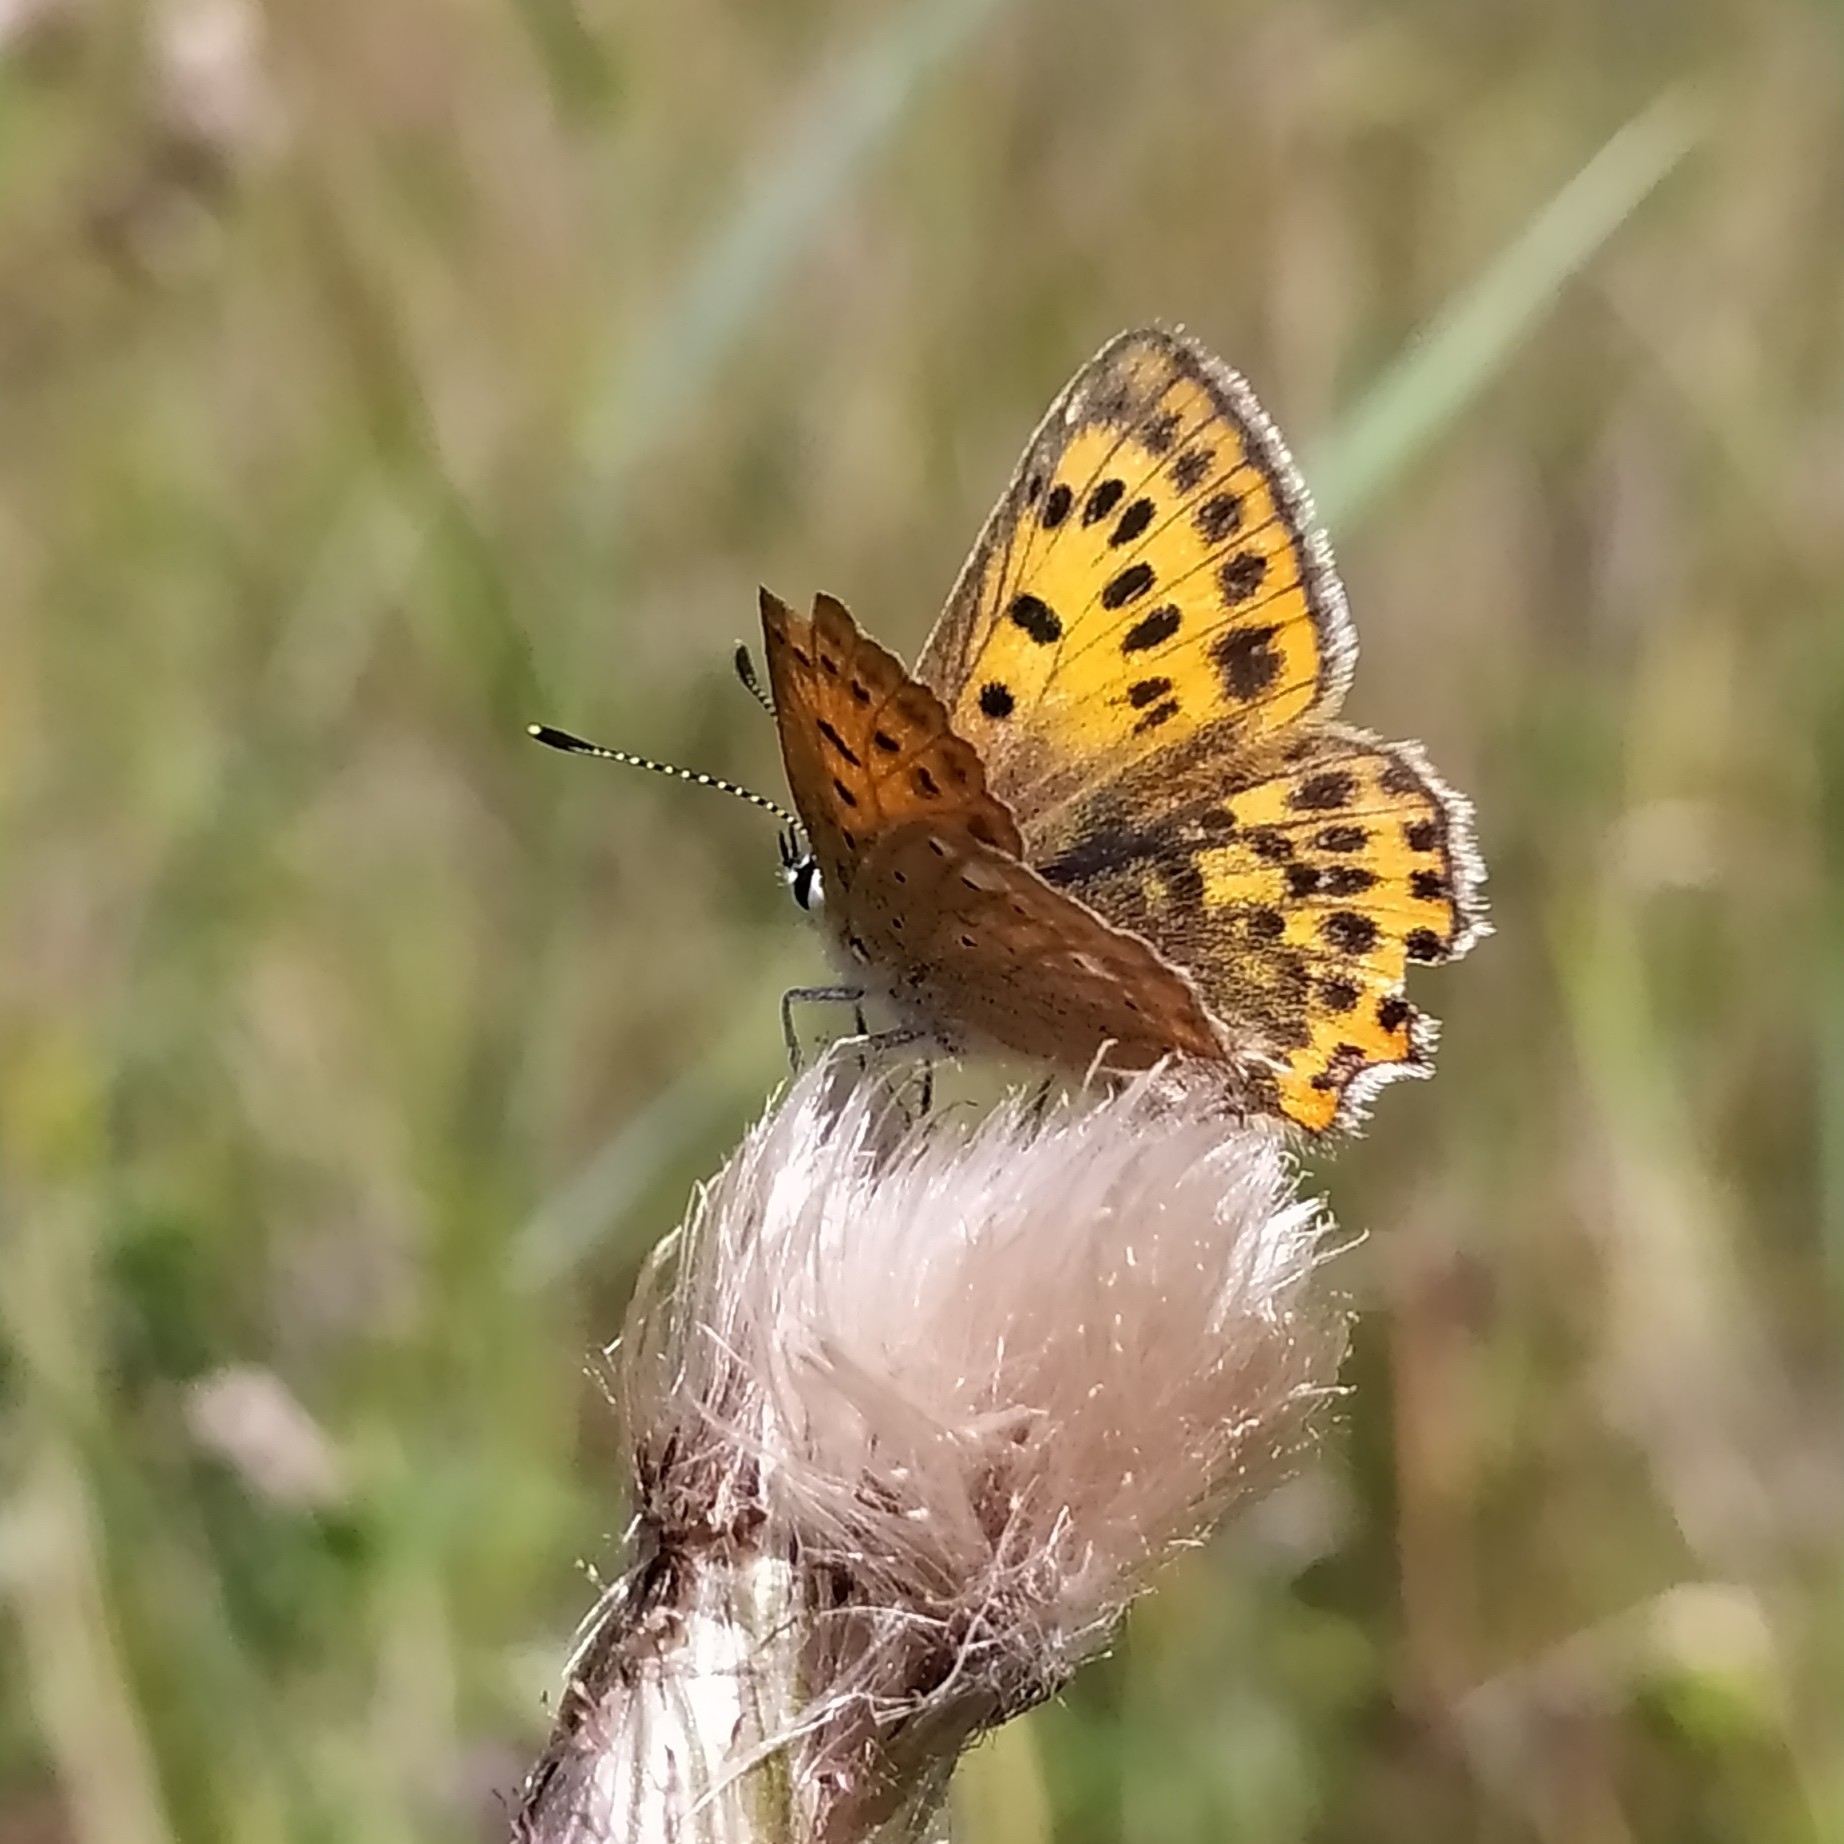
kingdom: Animalia
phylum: Arthropoda
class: Insecta
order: Lepidoptera
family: Lycaenidae
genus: Lycaena
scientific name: Lycaena virgaureae
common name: Scarce copper
